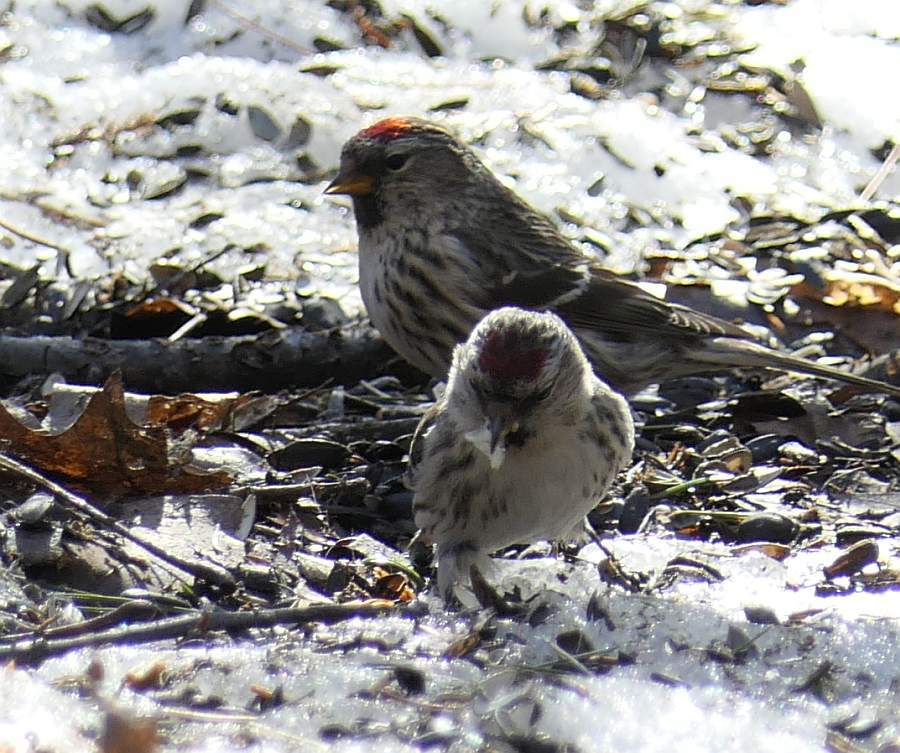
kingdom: Animalia
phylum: Chordata
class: Aves
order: Passeriformes
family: Fringillidae
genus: Acanthis
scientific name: Acanthis flammea
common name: Common redpoll
